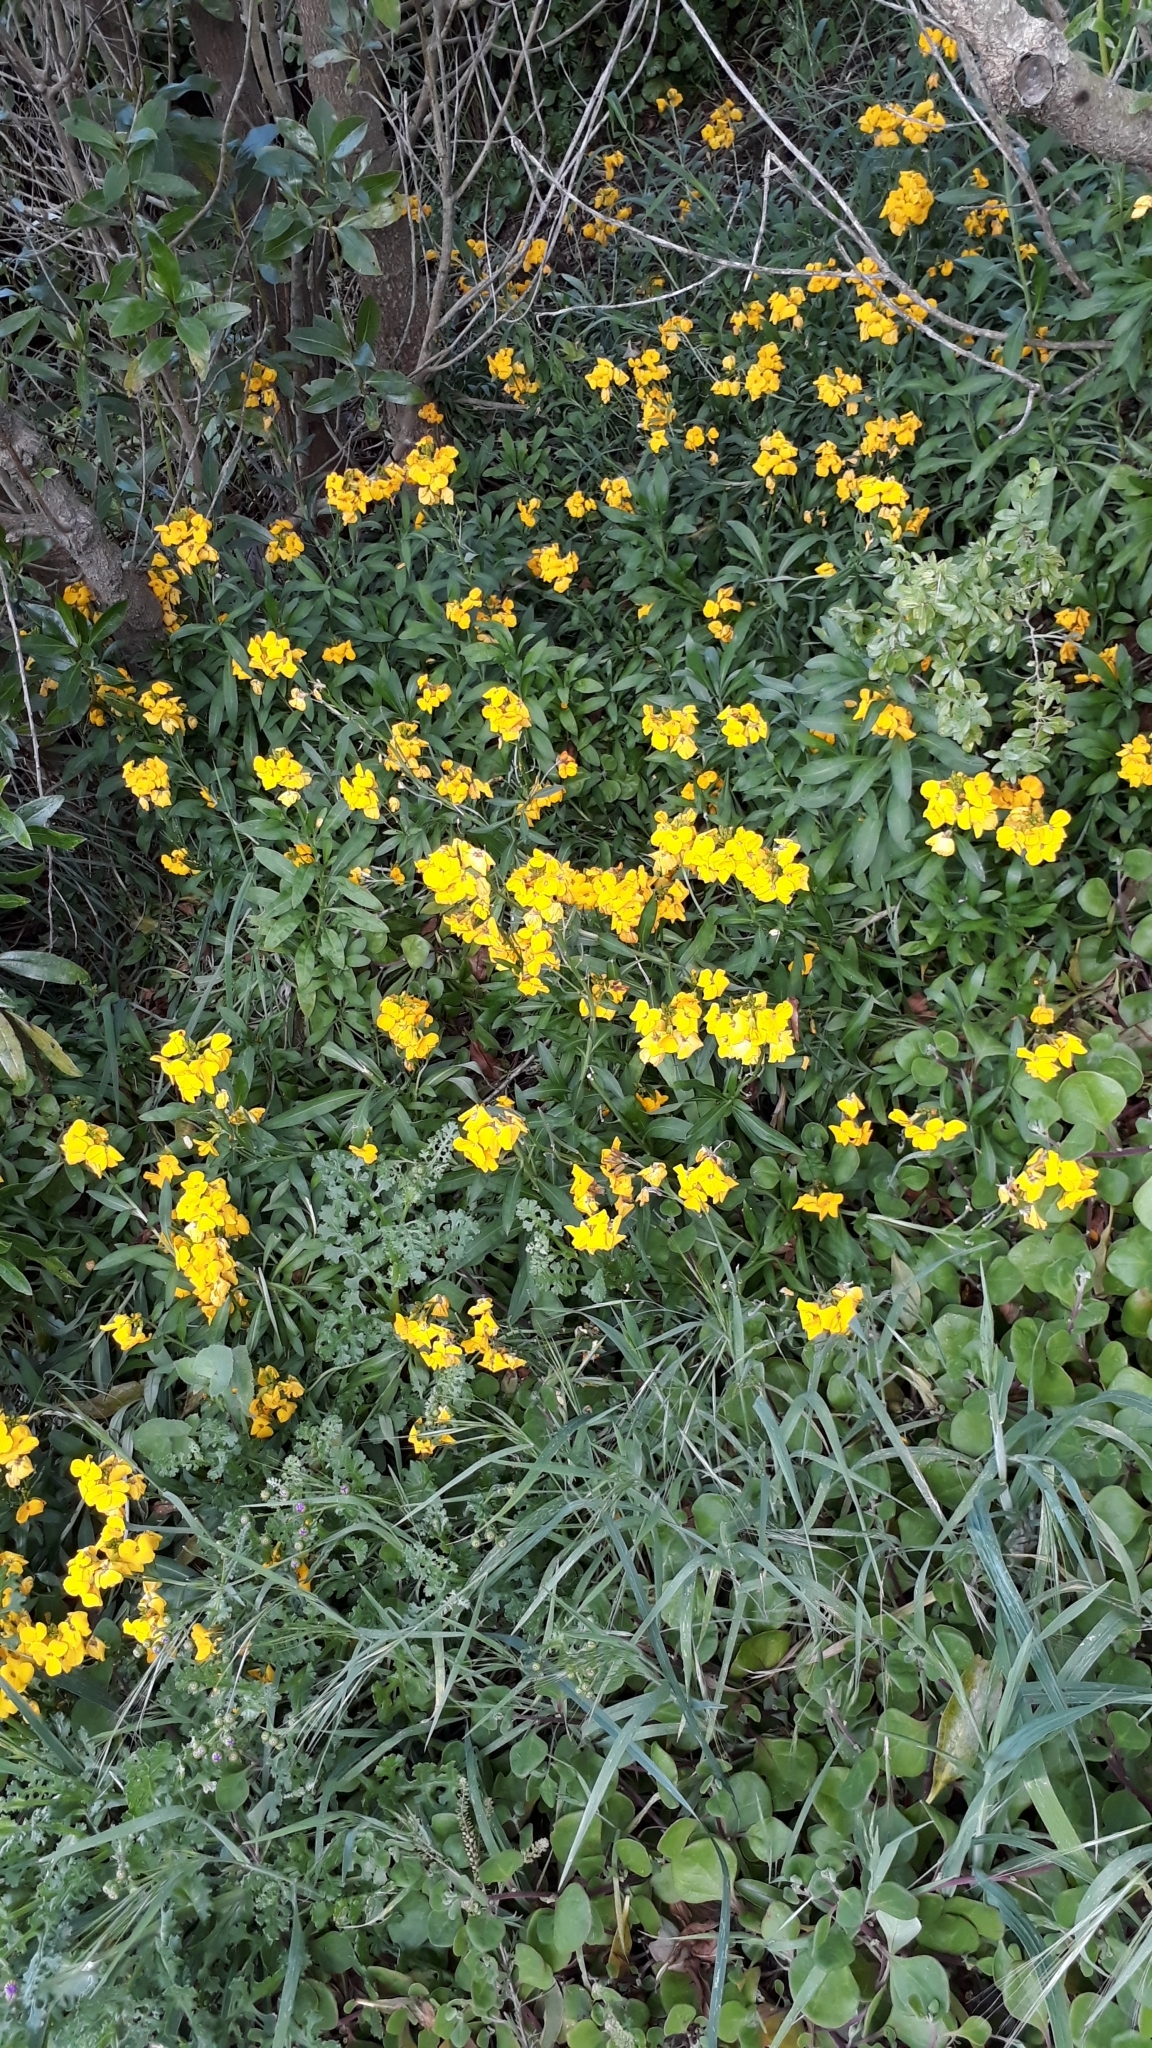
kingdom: Plantae
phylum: Tracheophyta
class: Magnoliopsida
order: Brassicales
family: Brassicaceae
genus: Erysimum
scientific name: Erysimum cheiri
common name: Wallflower
